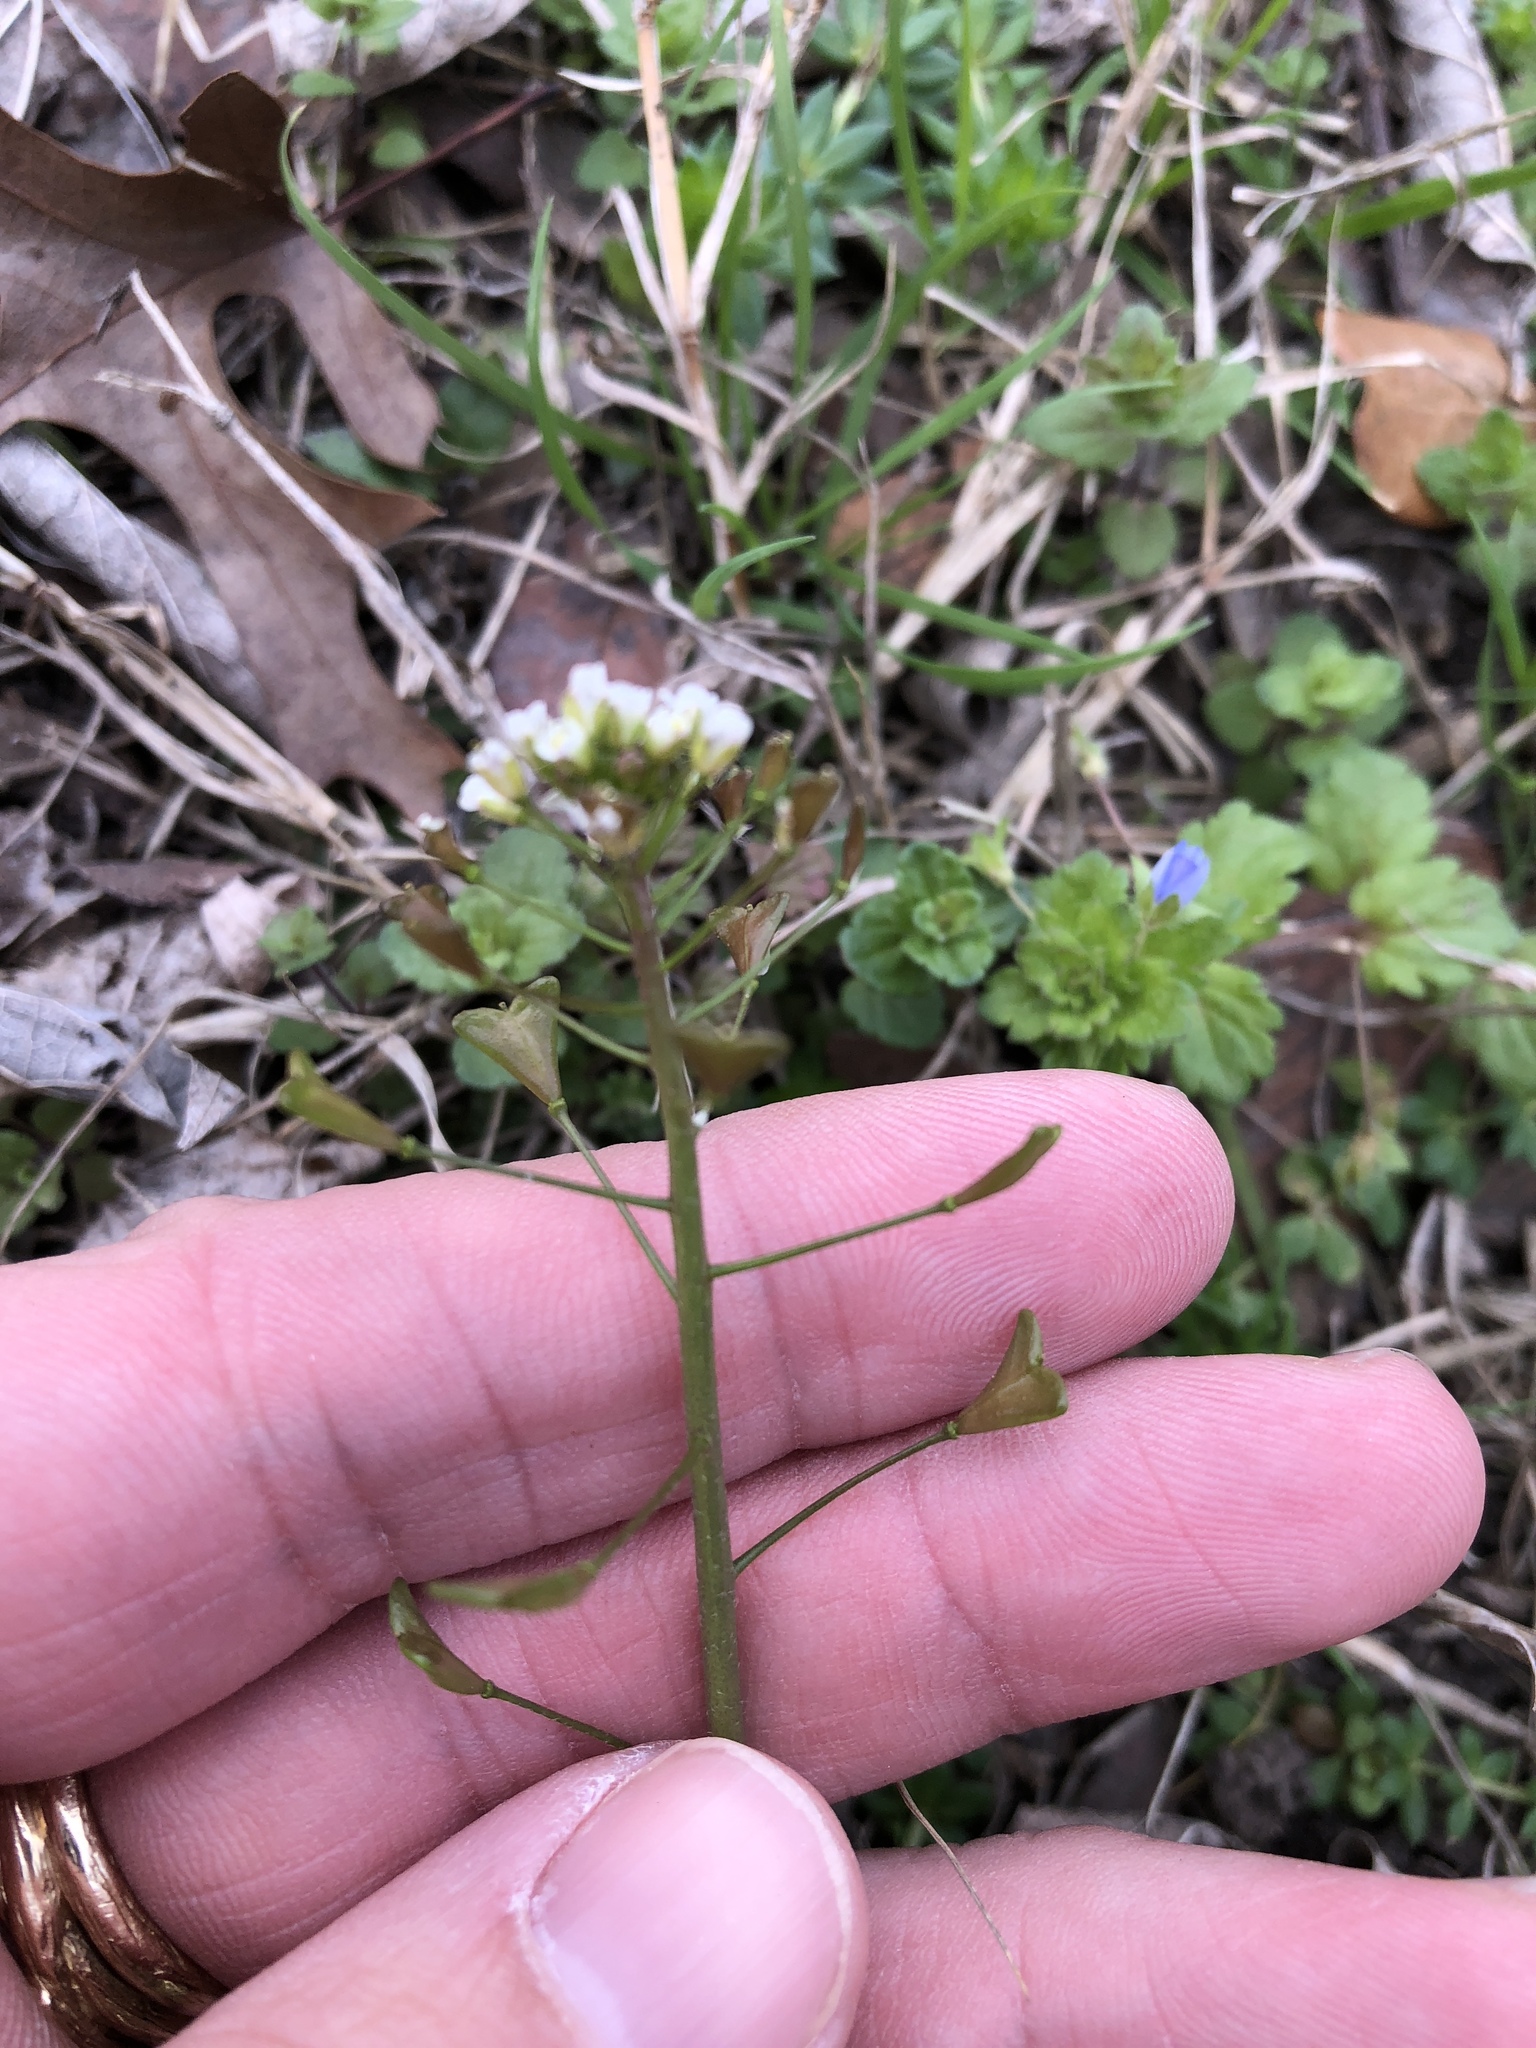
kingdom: Plantae
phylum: Tracheophyta
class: Magnoliopsida
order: Brassicales
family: Brassicaceae
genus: Capsella
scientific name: Capsella bursa-pastoris
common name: Shepherd's purse
